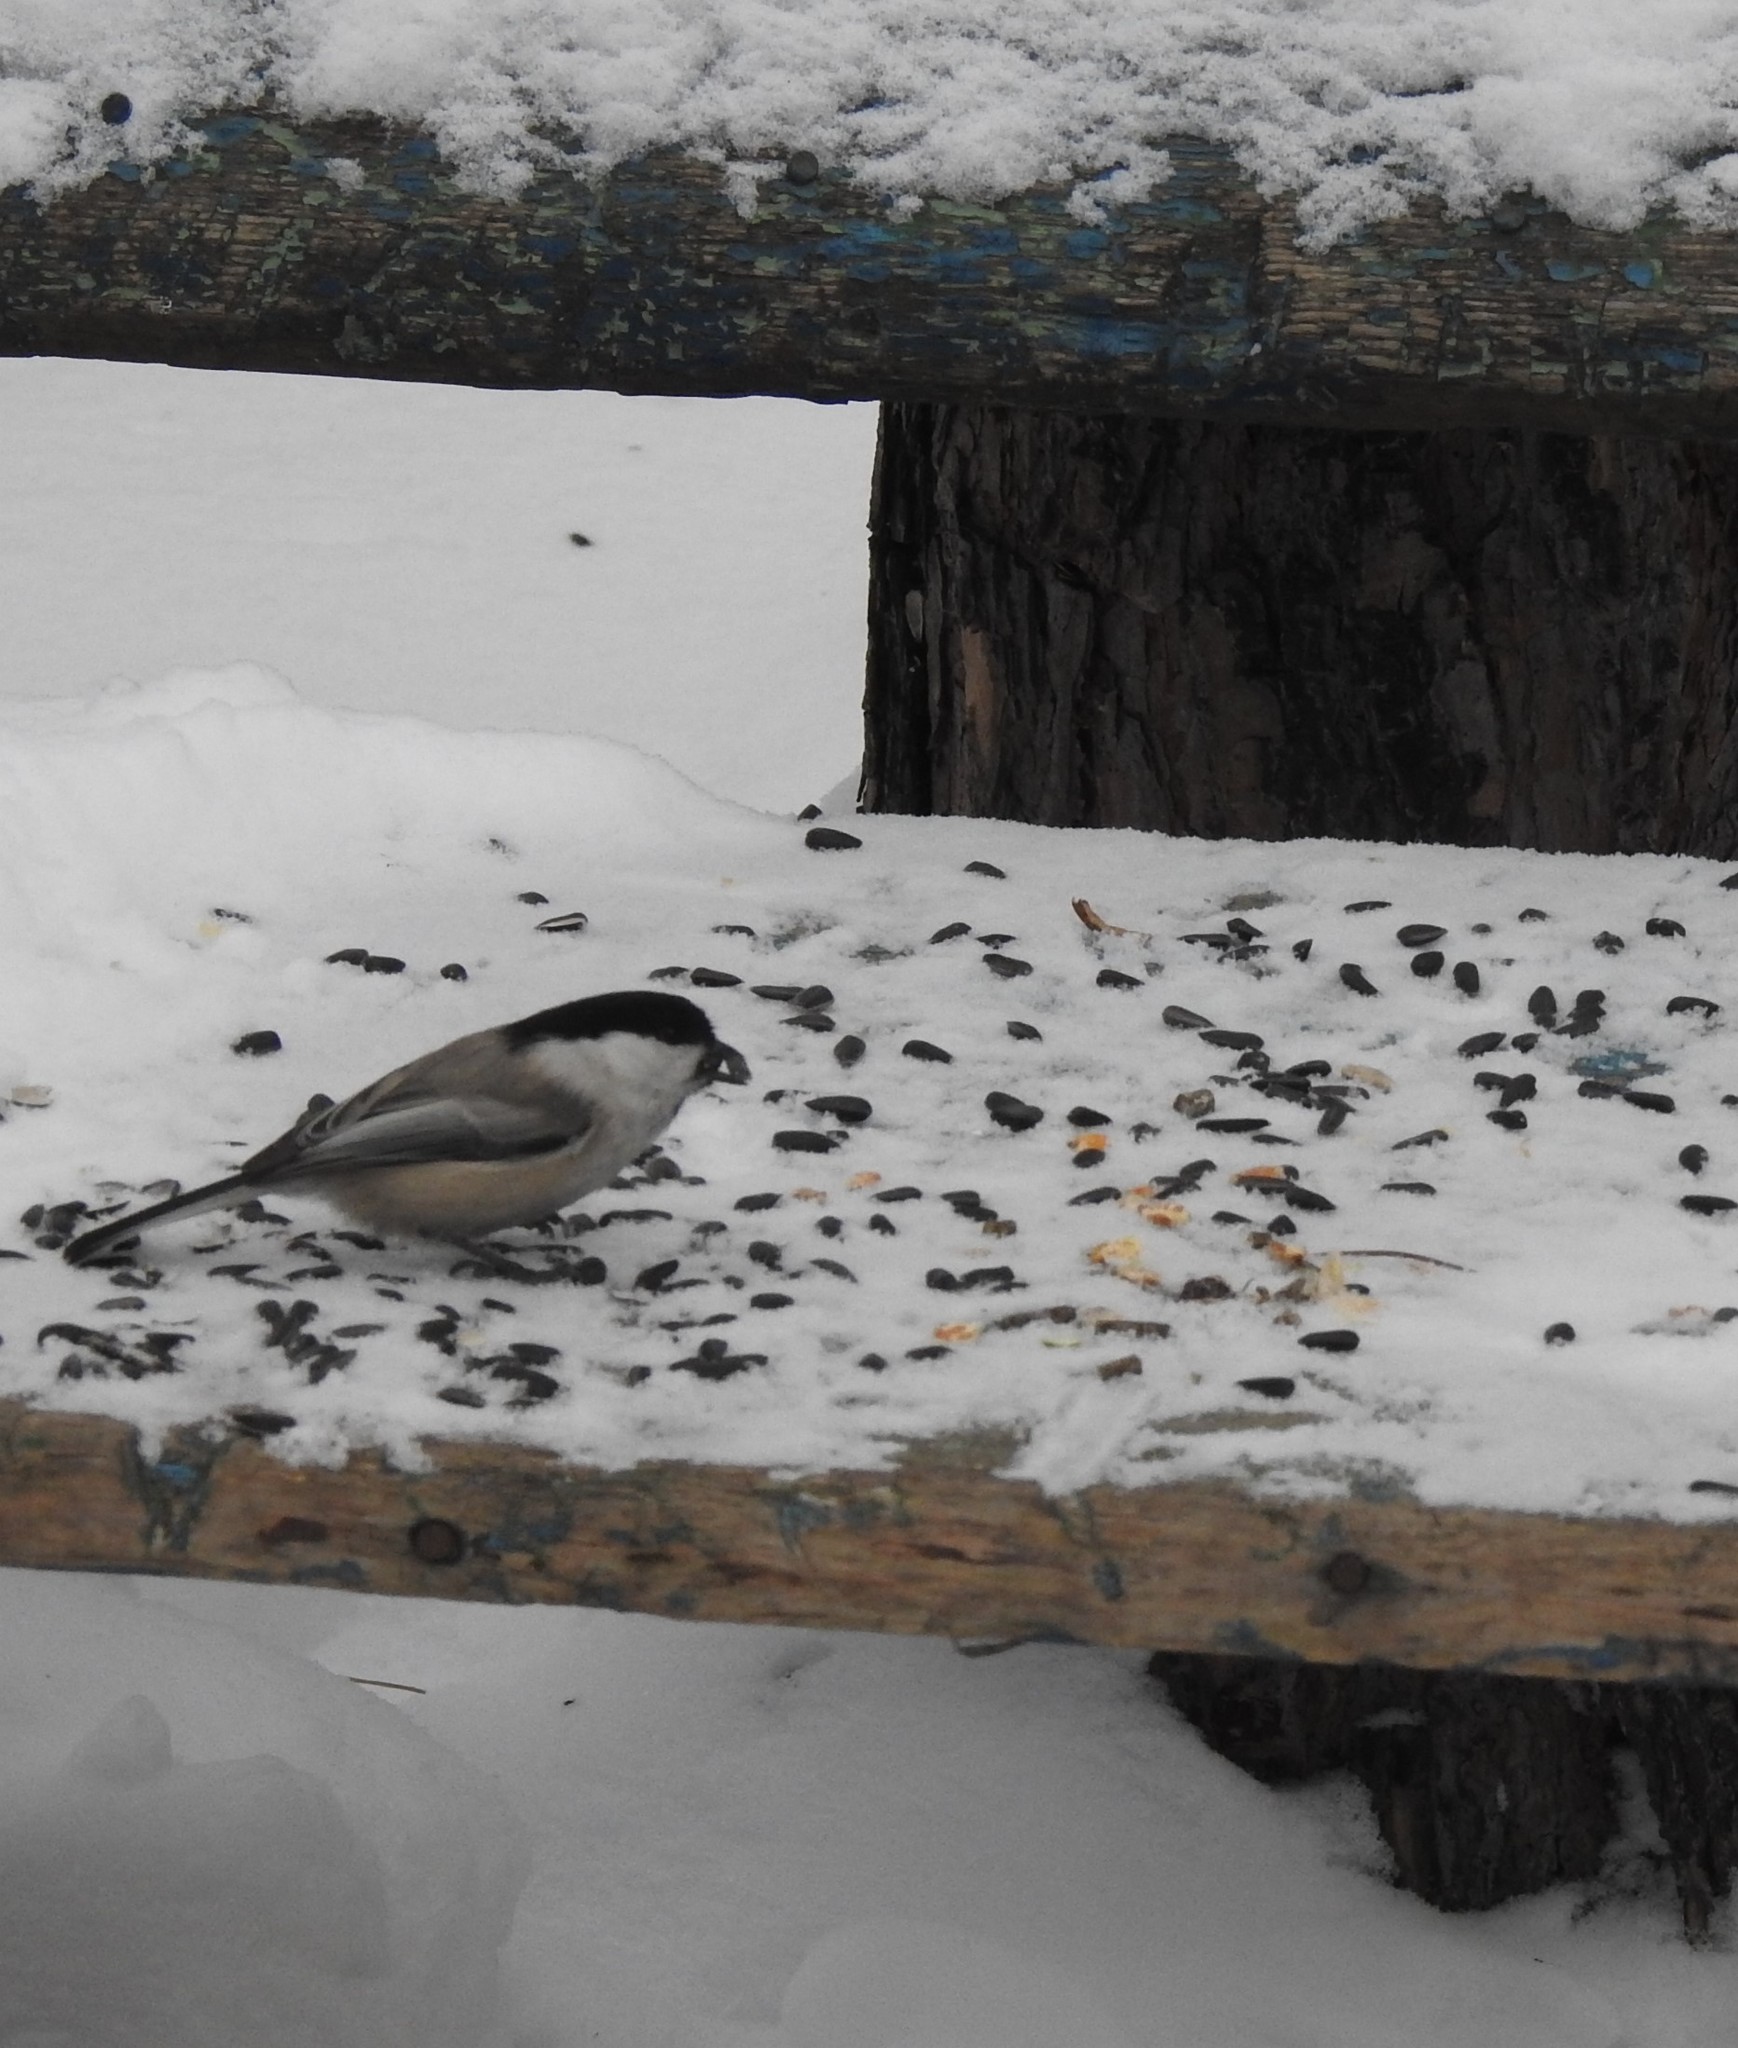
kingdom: Animalia
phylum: Chordata
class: Aves
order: Passeriformes
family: Paridae
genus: Poecile
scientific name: Poecile montanus
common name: Willow tit
